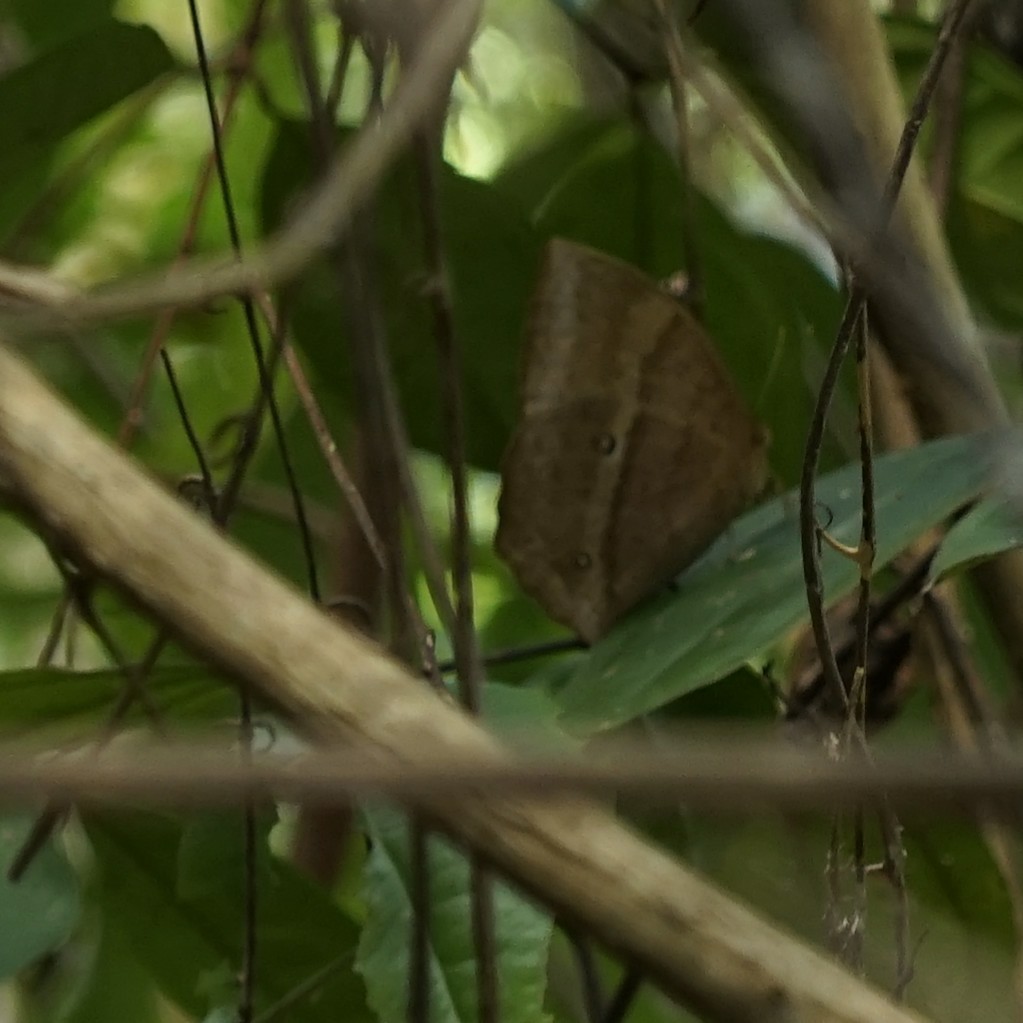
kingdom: Animalia
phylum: Arthropoda
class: Insecta
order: Lepidoptera
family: Nymphalidae
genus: Discophora
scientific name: Discophora sondaica
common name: Common duffer
